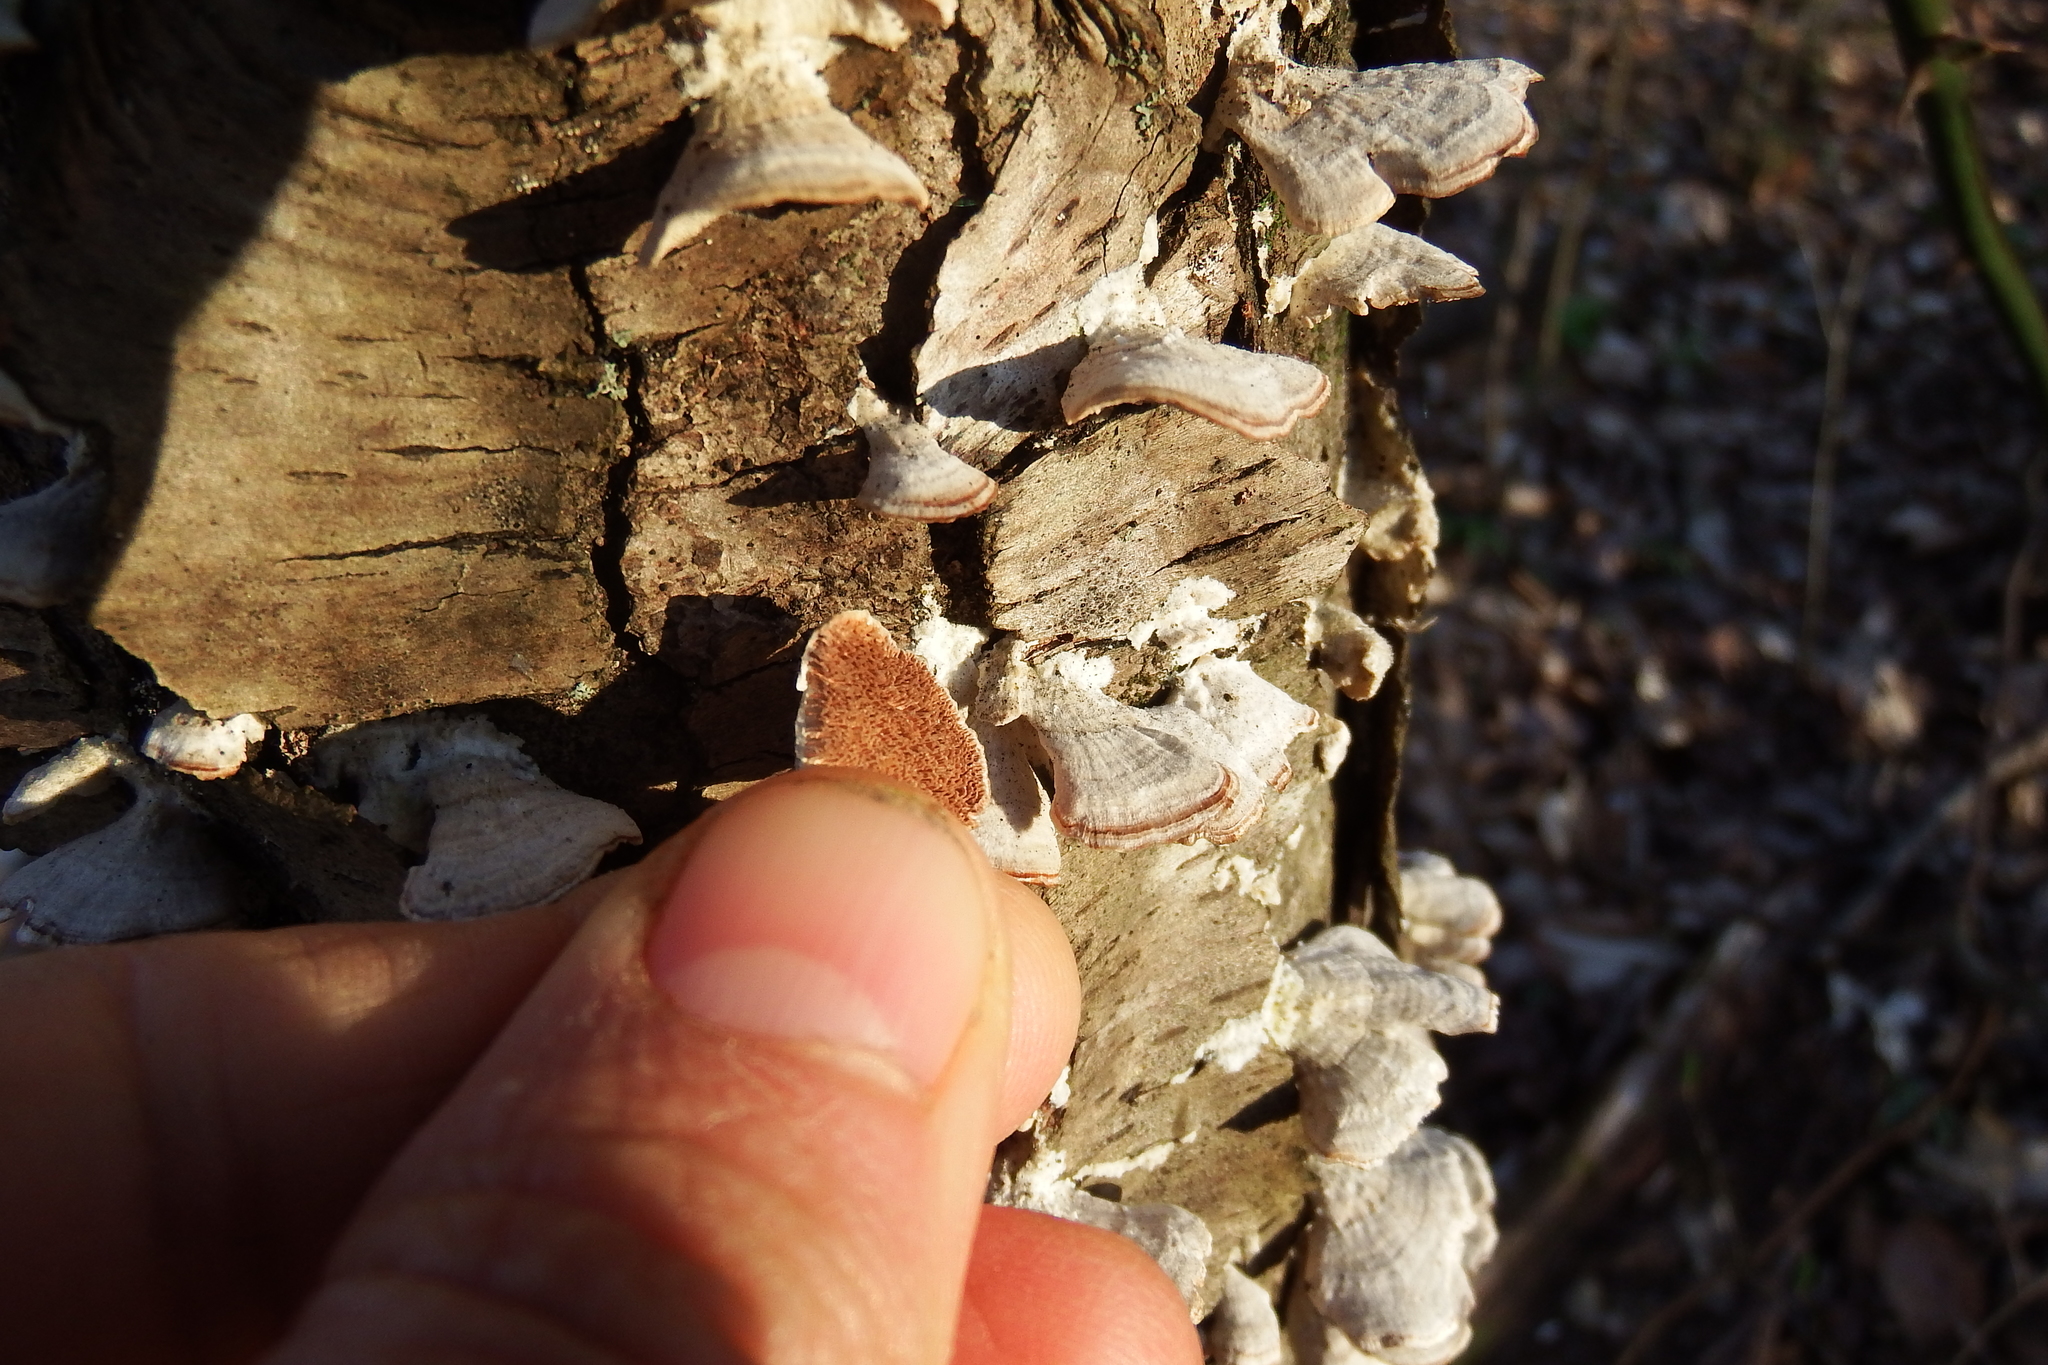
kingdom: Fungi
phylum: Basidiomycota
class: Agaricomycetes
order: Hymenochaetales
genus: Trichaptum
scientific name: Trichaptum biforme
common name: Violet-toothed polypore
